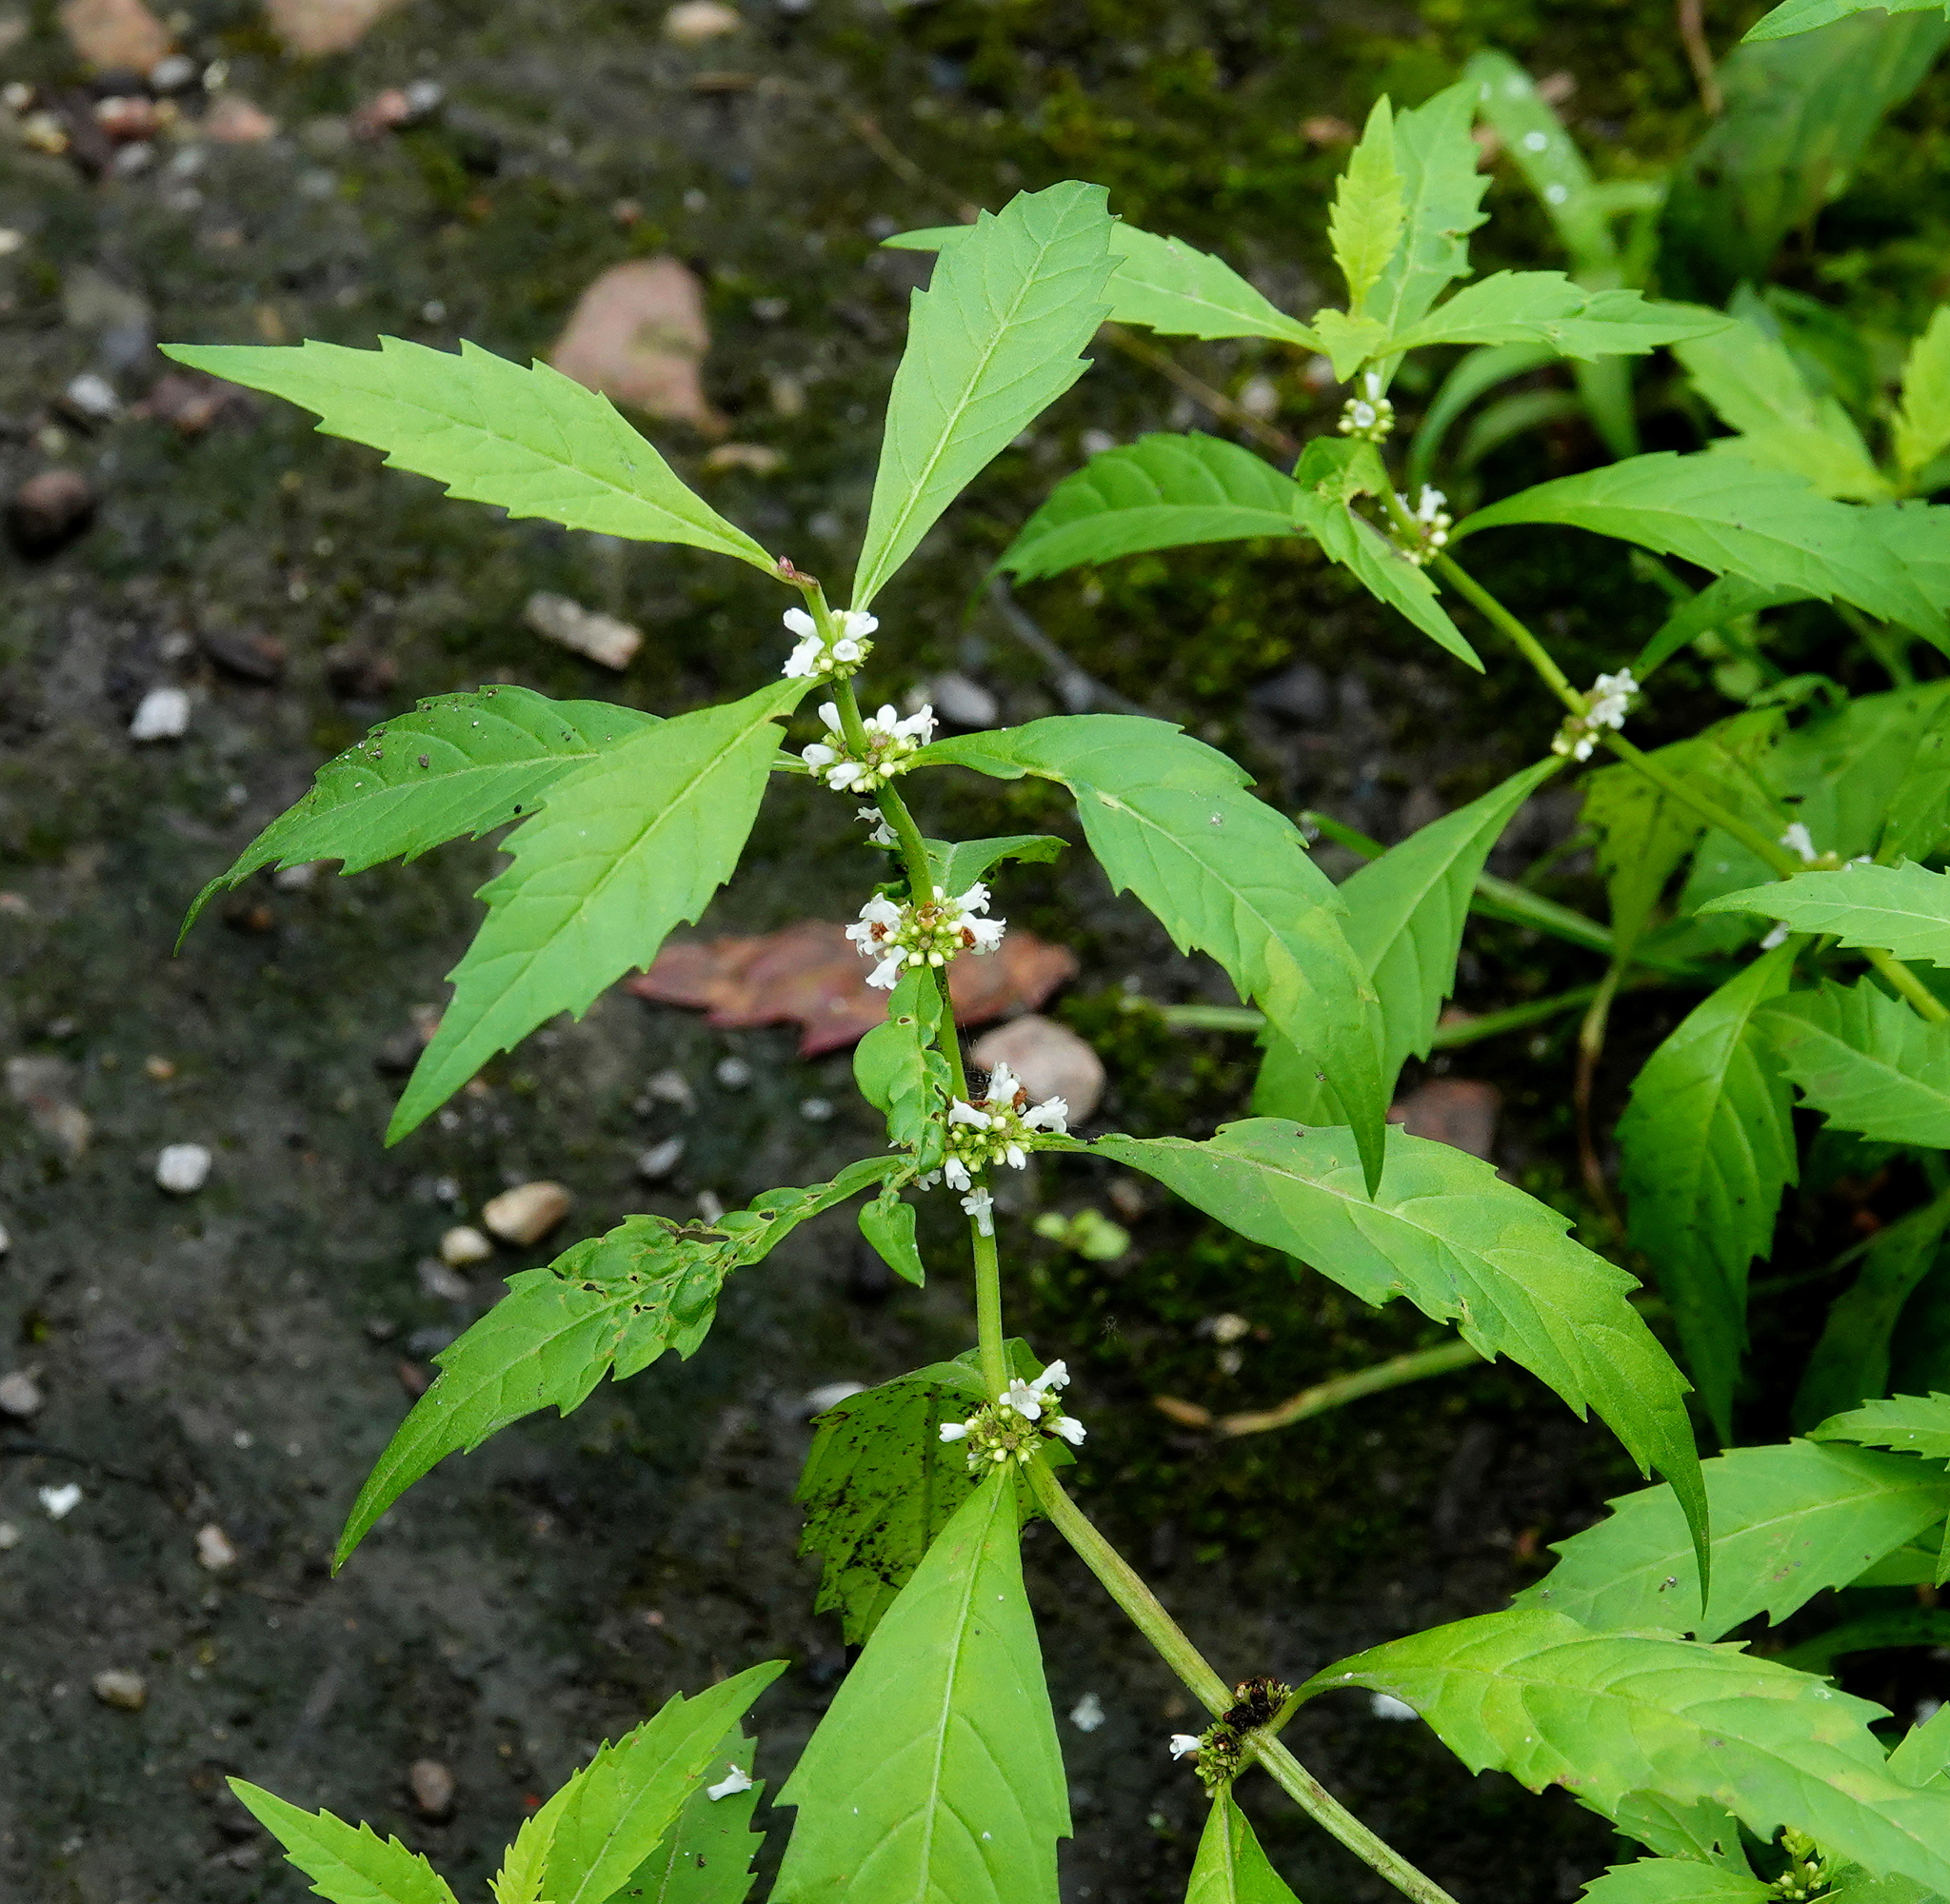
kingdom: Plantae
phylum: Tracheophyta
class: Magnoliopsida
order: Lamiales
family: Lamiaceae
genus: Lycopus
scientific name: Lycopus uniflorus
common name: Northern bugleweed
